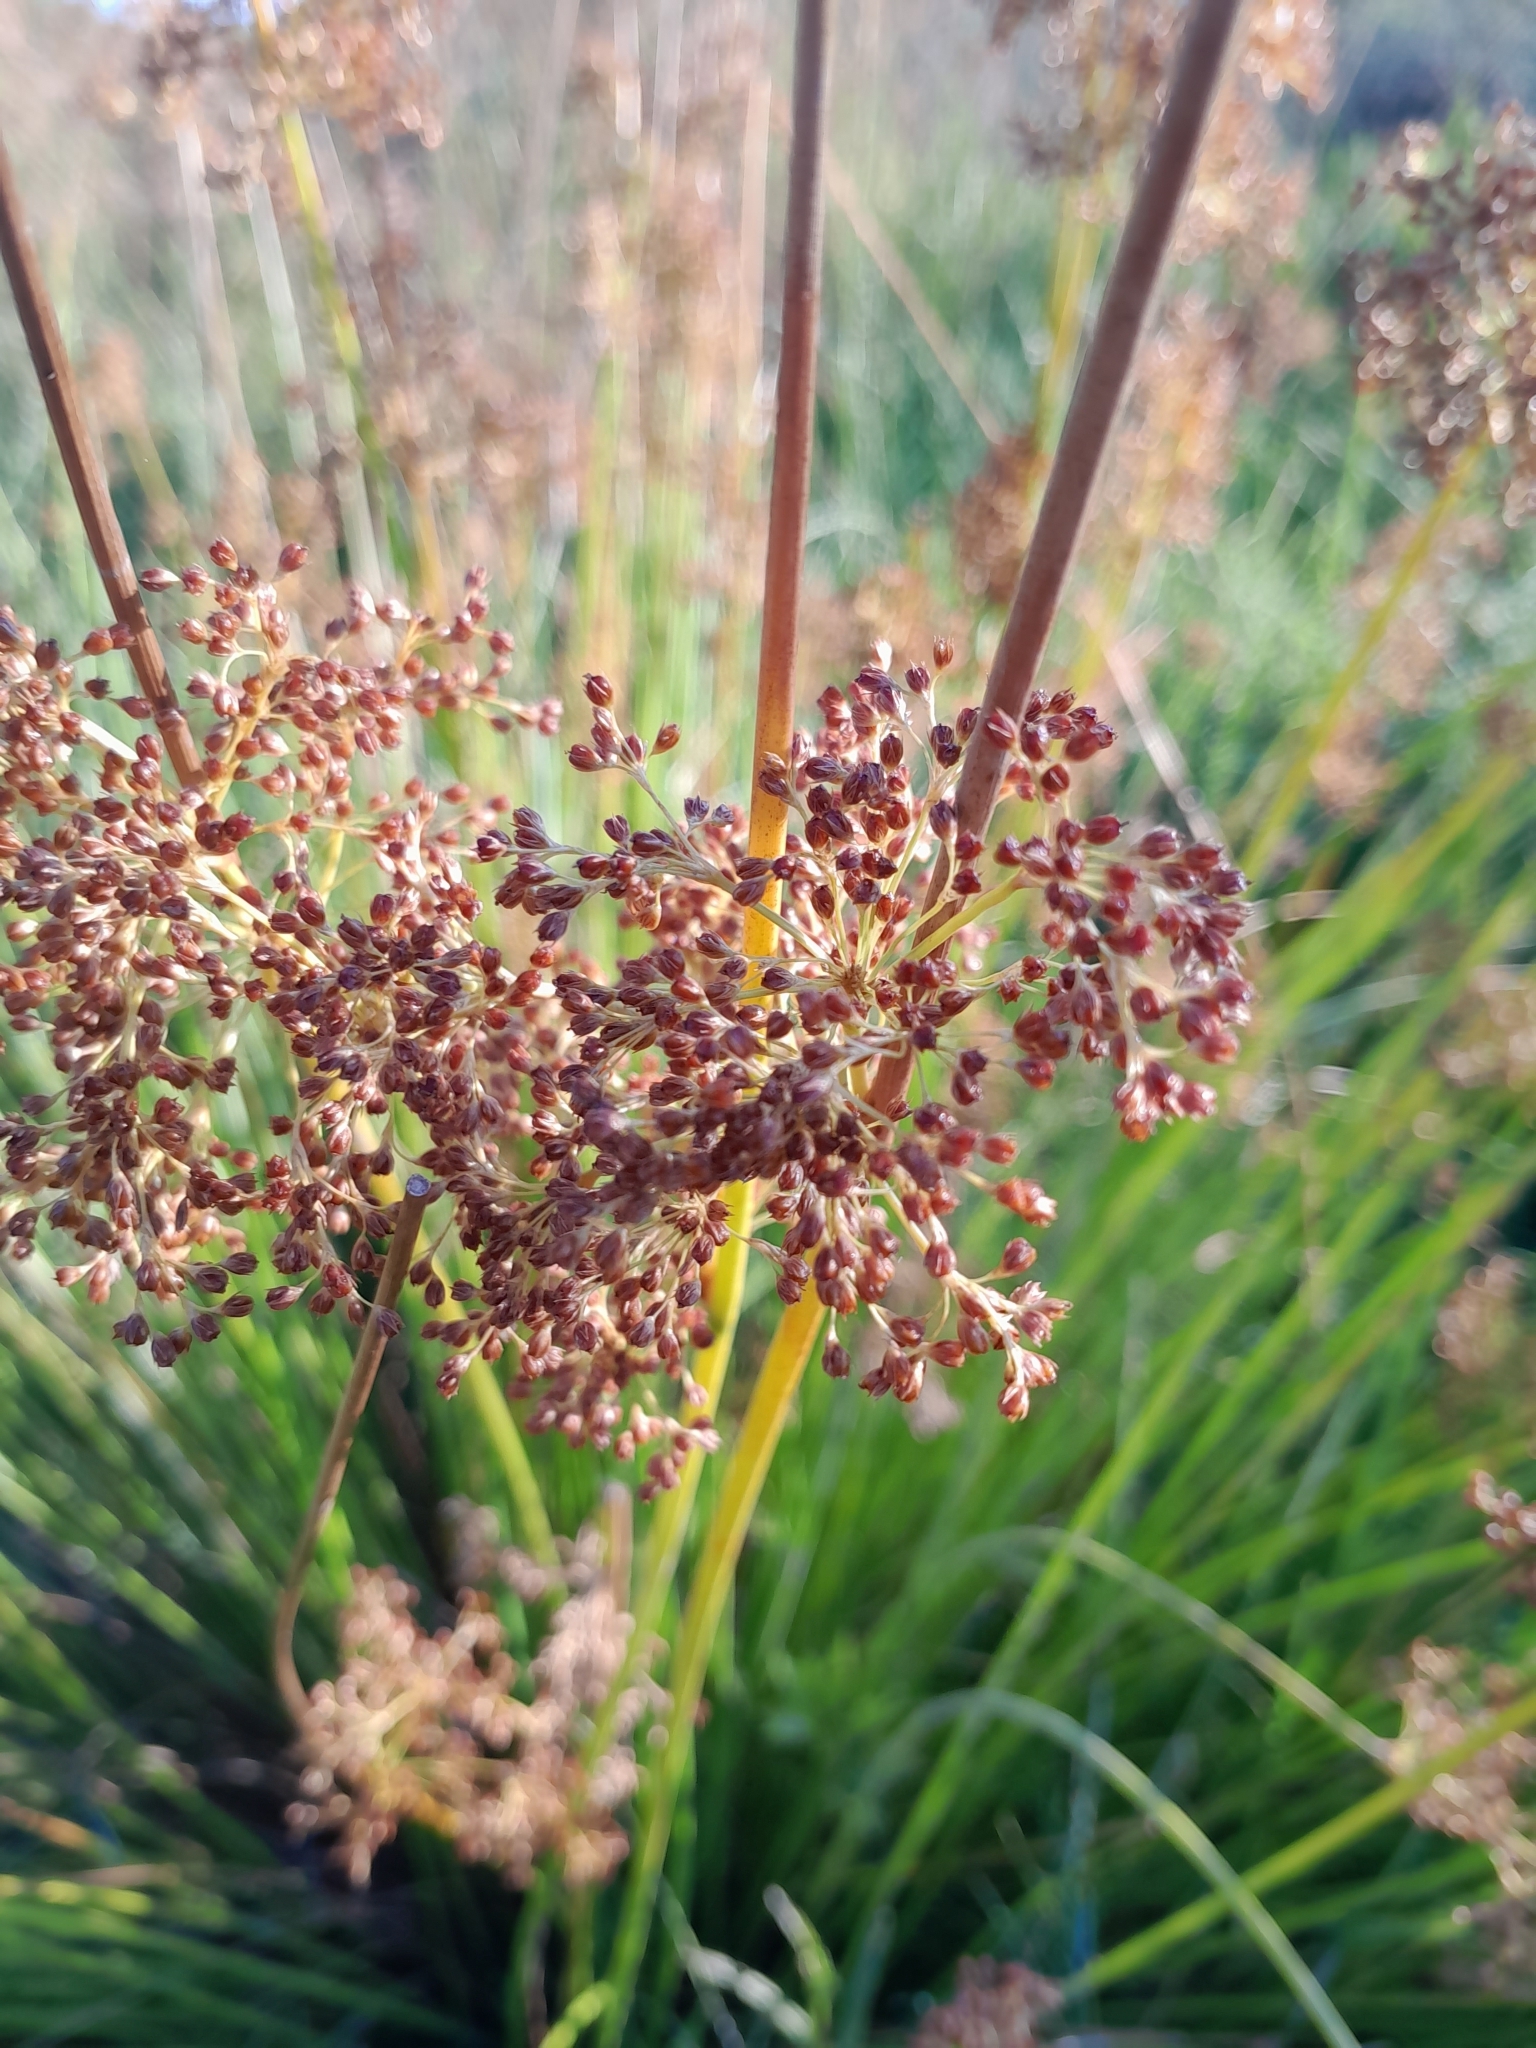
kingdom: Plantae
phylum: Tracheophyta
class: Liliopsida
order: Poales
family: Juncaceae
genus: Juncus
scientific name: Juncus effusus
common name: Soft rush
